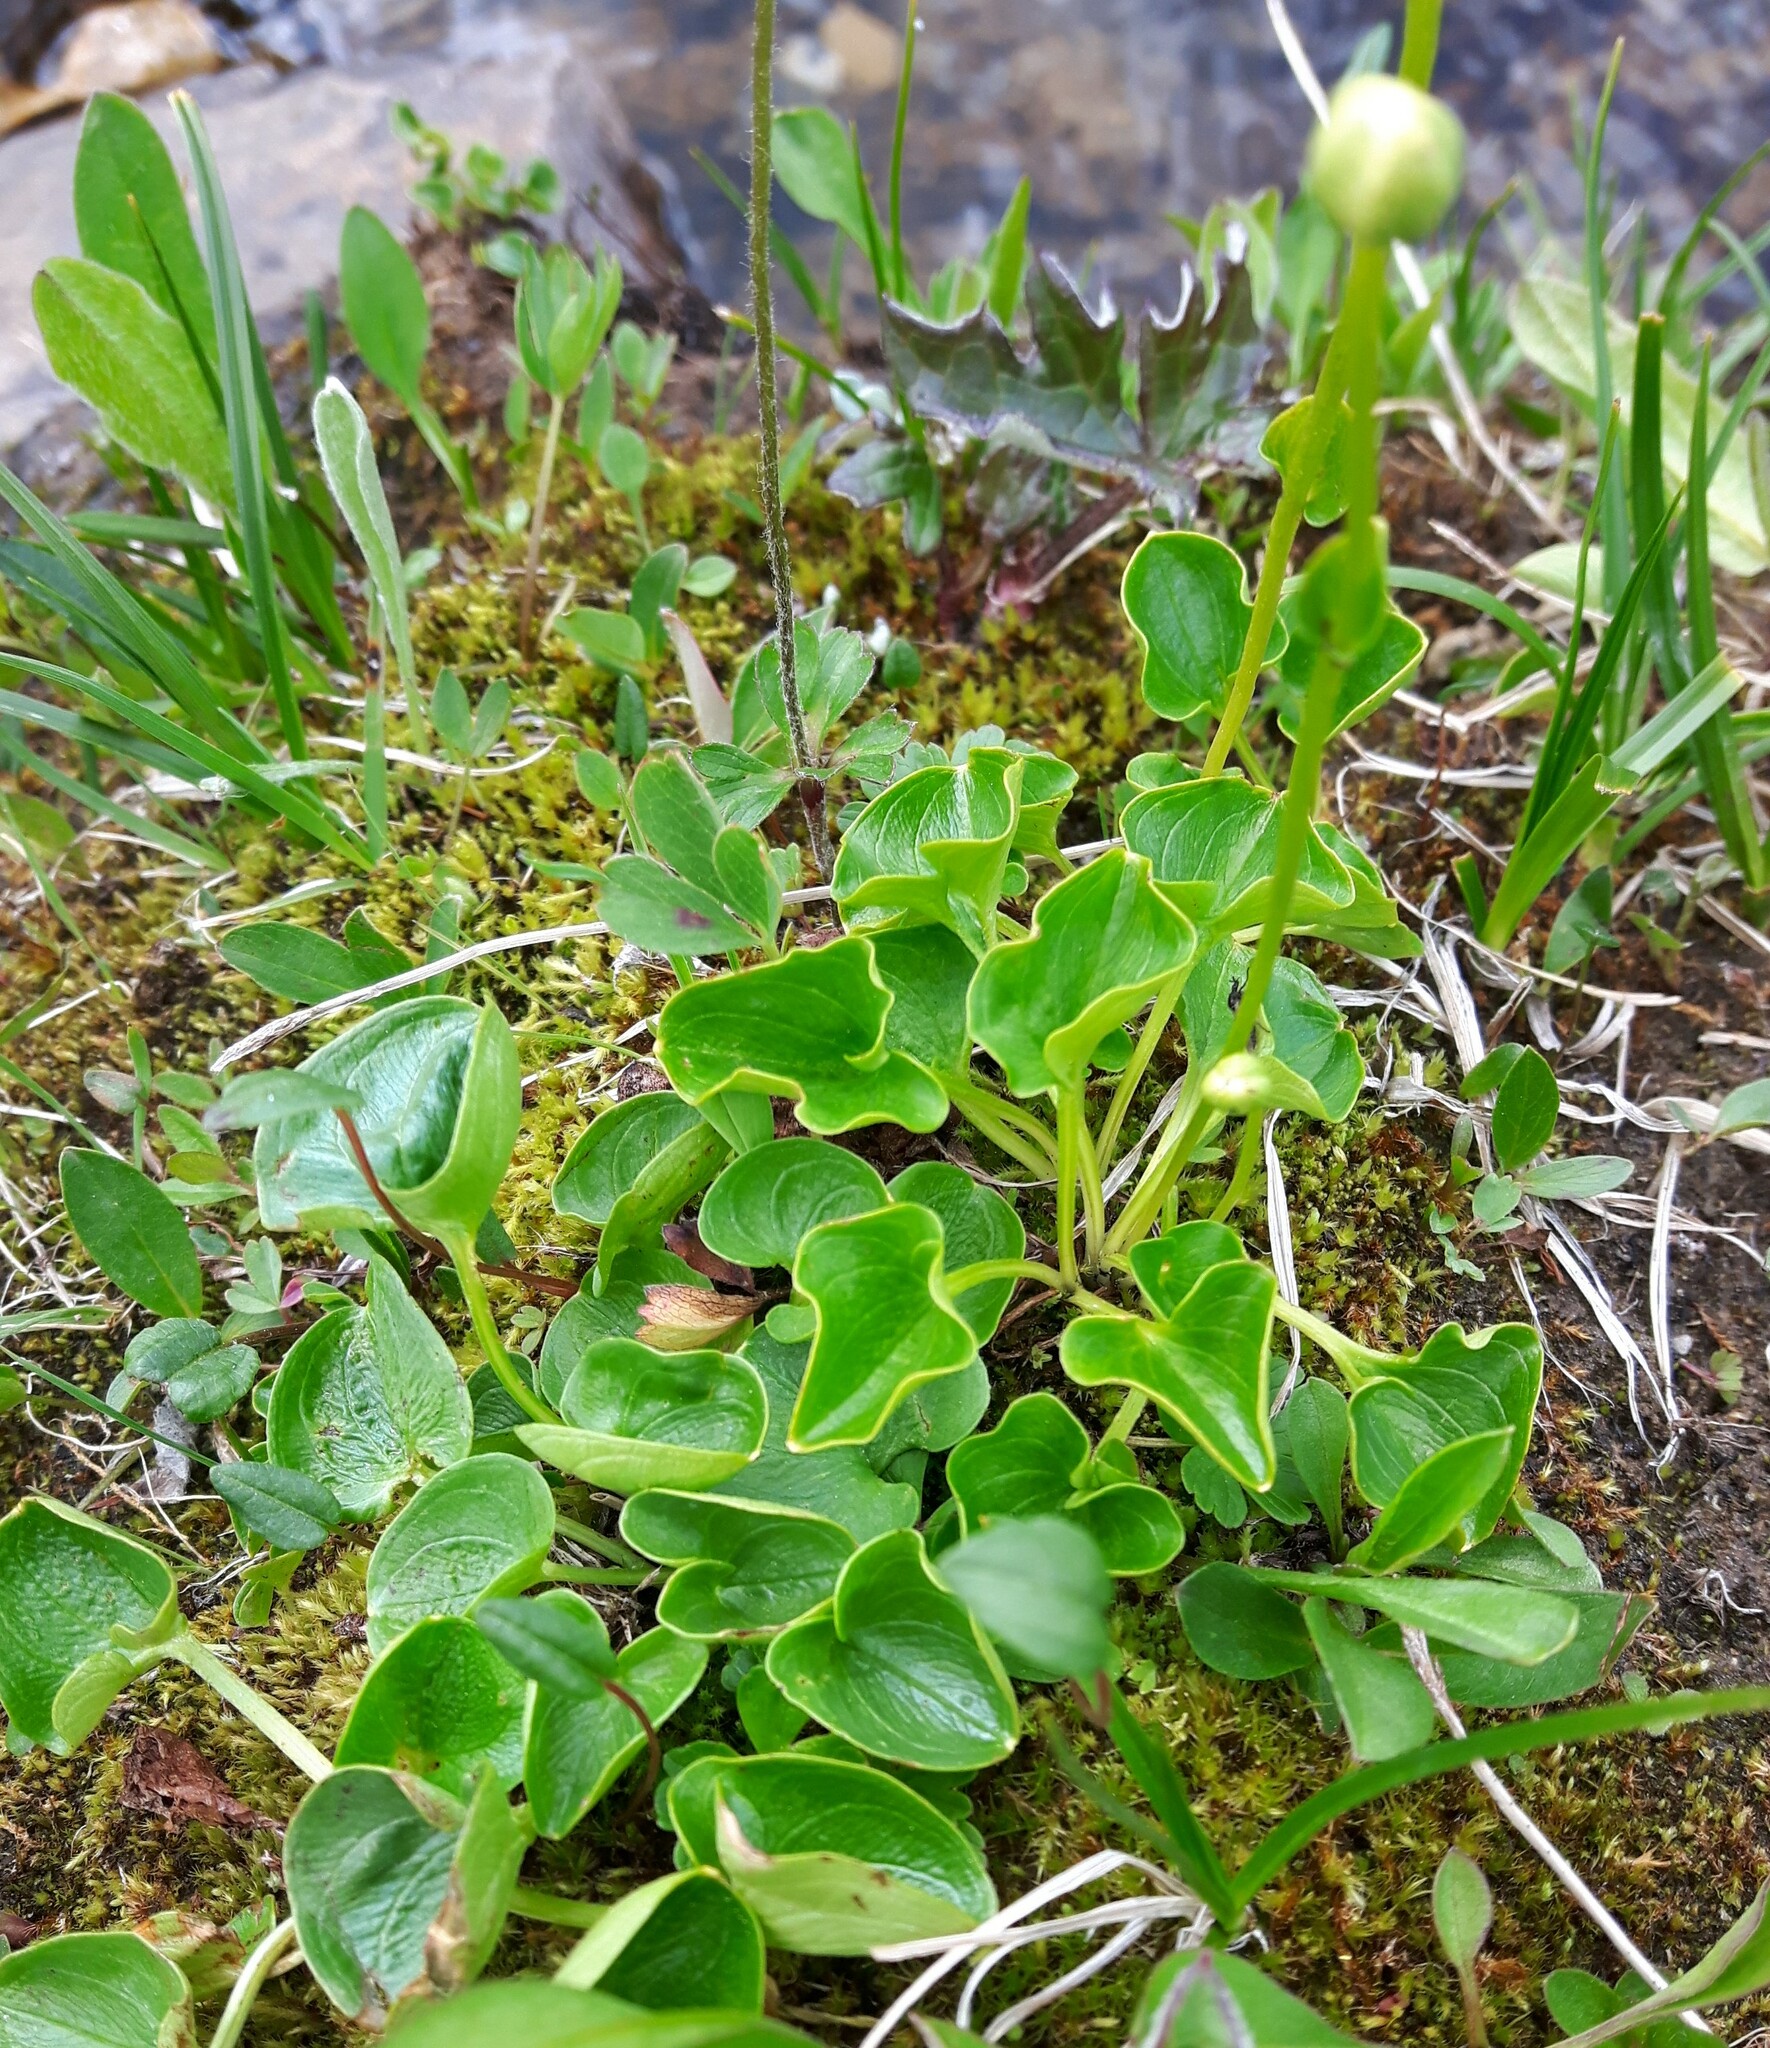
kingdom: Plantae
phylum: Tracheophyta
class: Magnoliopsida
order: Celastrales
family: Parnassiaceae
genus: Parnassia
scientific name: Parnassia fimbriata
